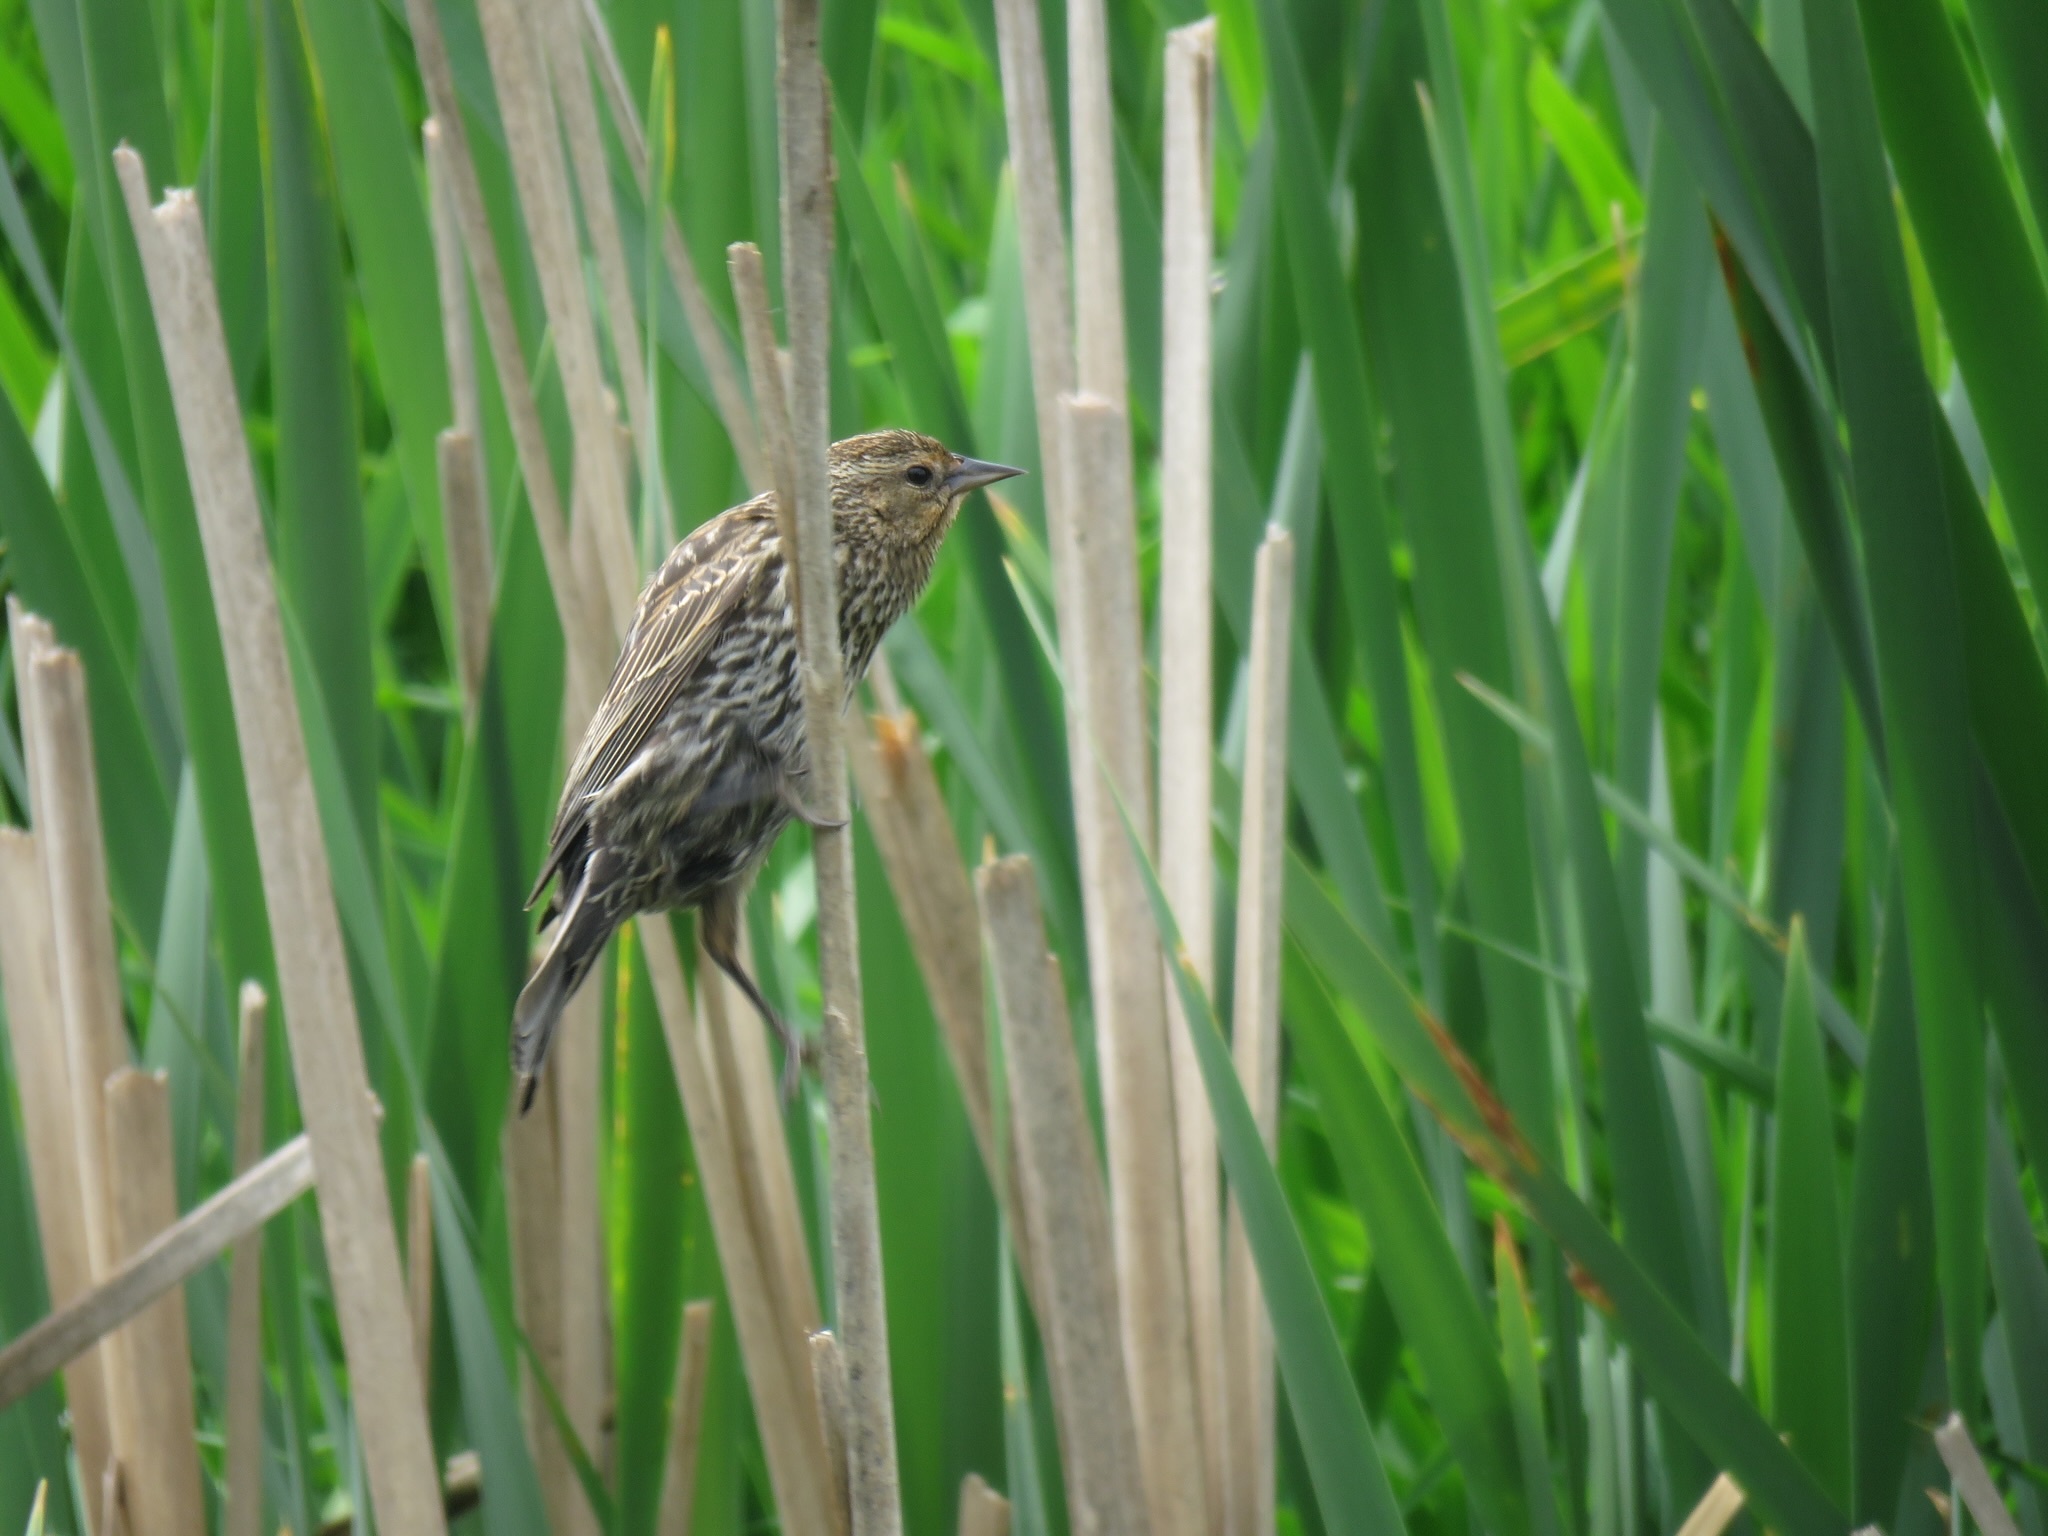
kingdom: Animalia
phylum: Chordata
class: Aves
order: Passeriformes
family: Icteridae
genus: Agelaius
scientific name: Agelaius phoeniceus
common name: Red-winged blackbird
